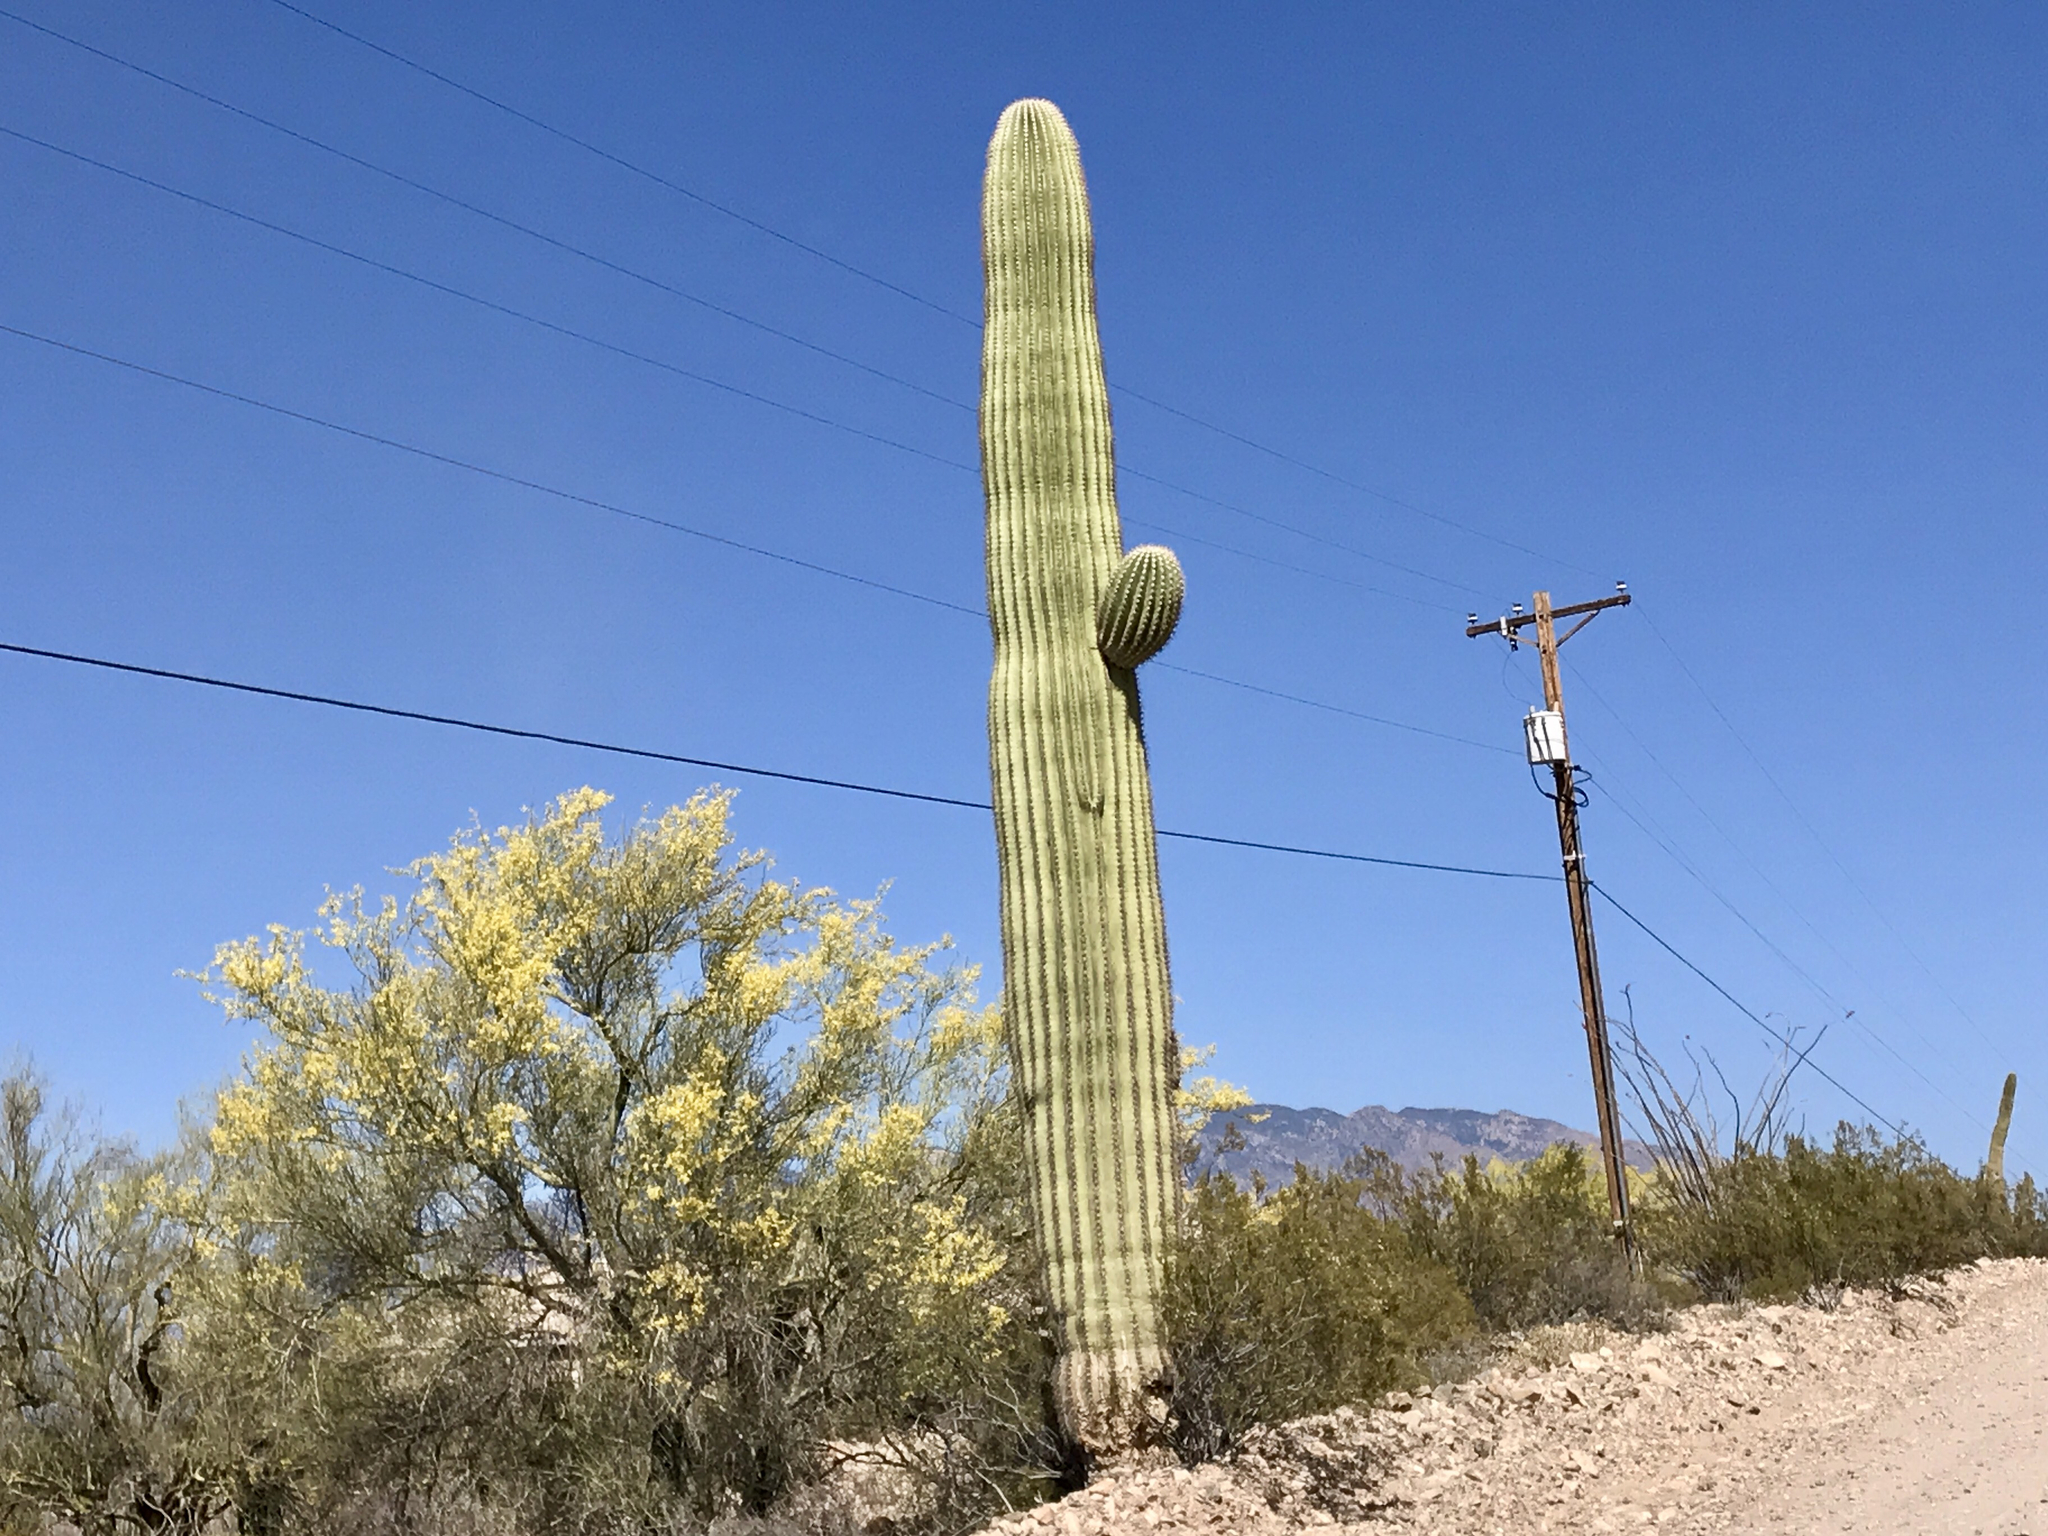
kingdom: Plantae
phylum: Tracheophyta
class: Magnoliopsida
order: Caryophyllales
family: Cactaceae
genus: Carnegiea
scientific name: Carnegiea gigantea
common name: Saguaro
